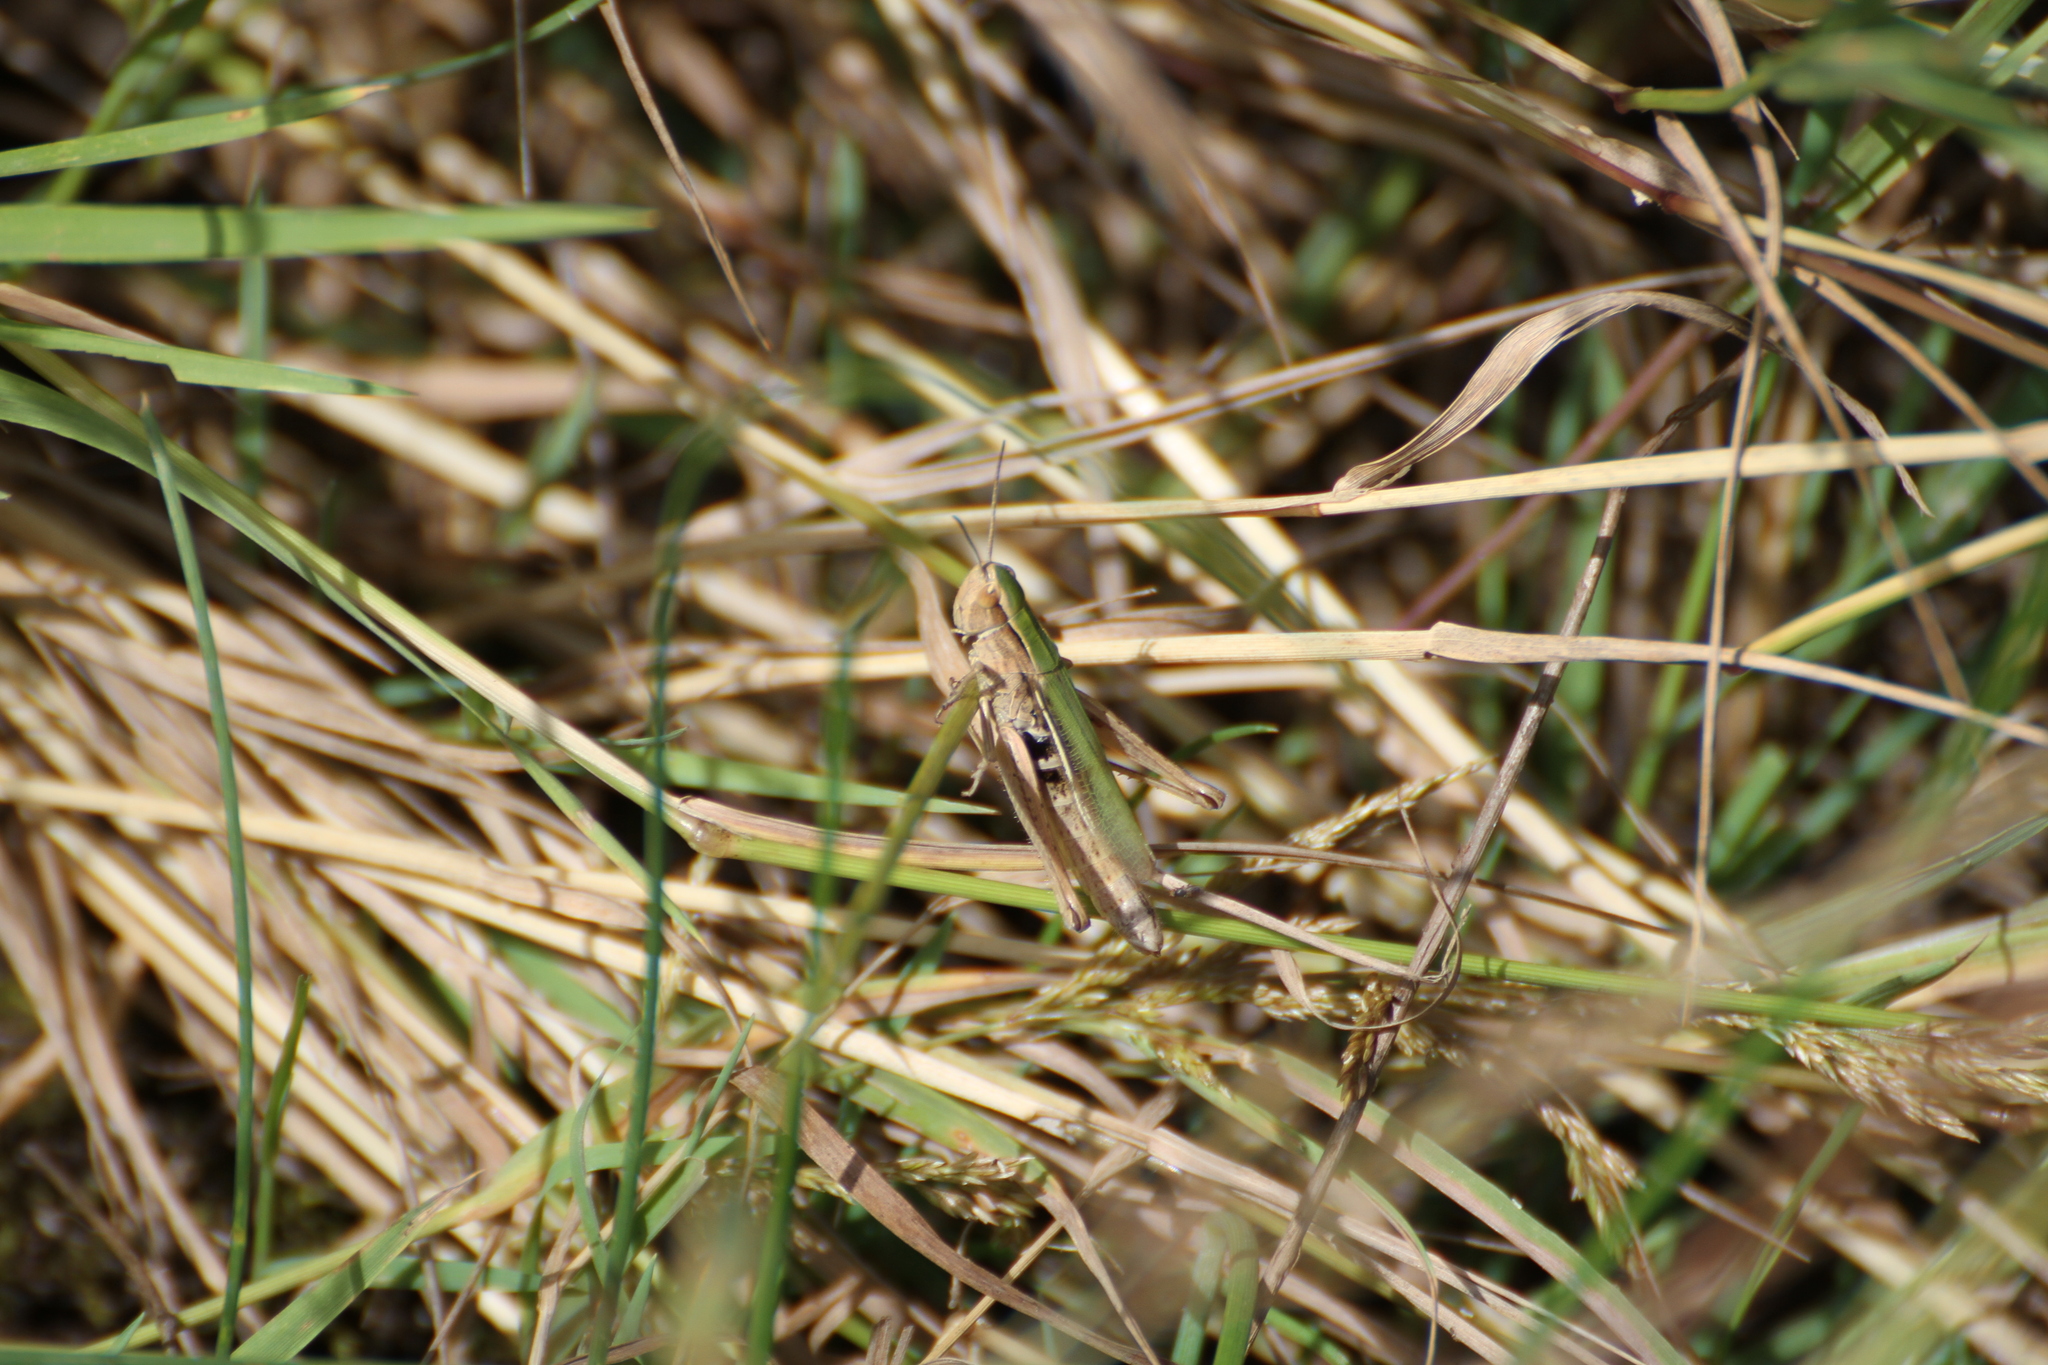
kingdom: Animalia
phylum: Arthropoda
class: Insecta
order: Orthoptera
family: Acrididae
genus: Chorthippus
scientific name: Chorthippus albomarginatus
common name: Lesser marsh grasshopper
